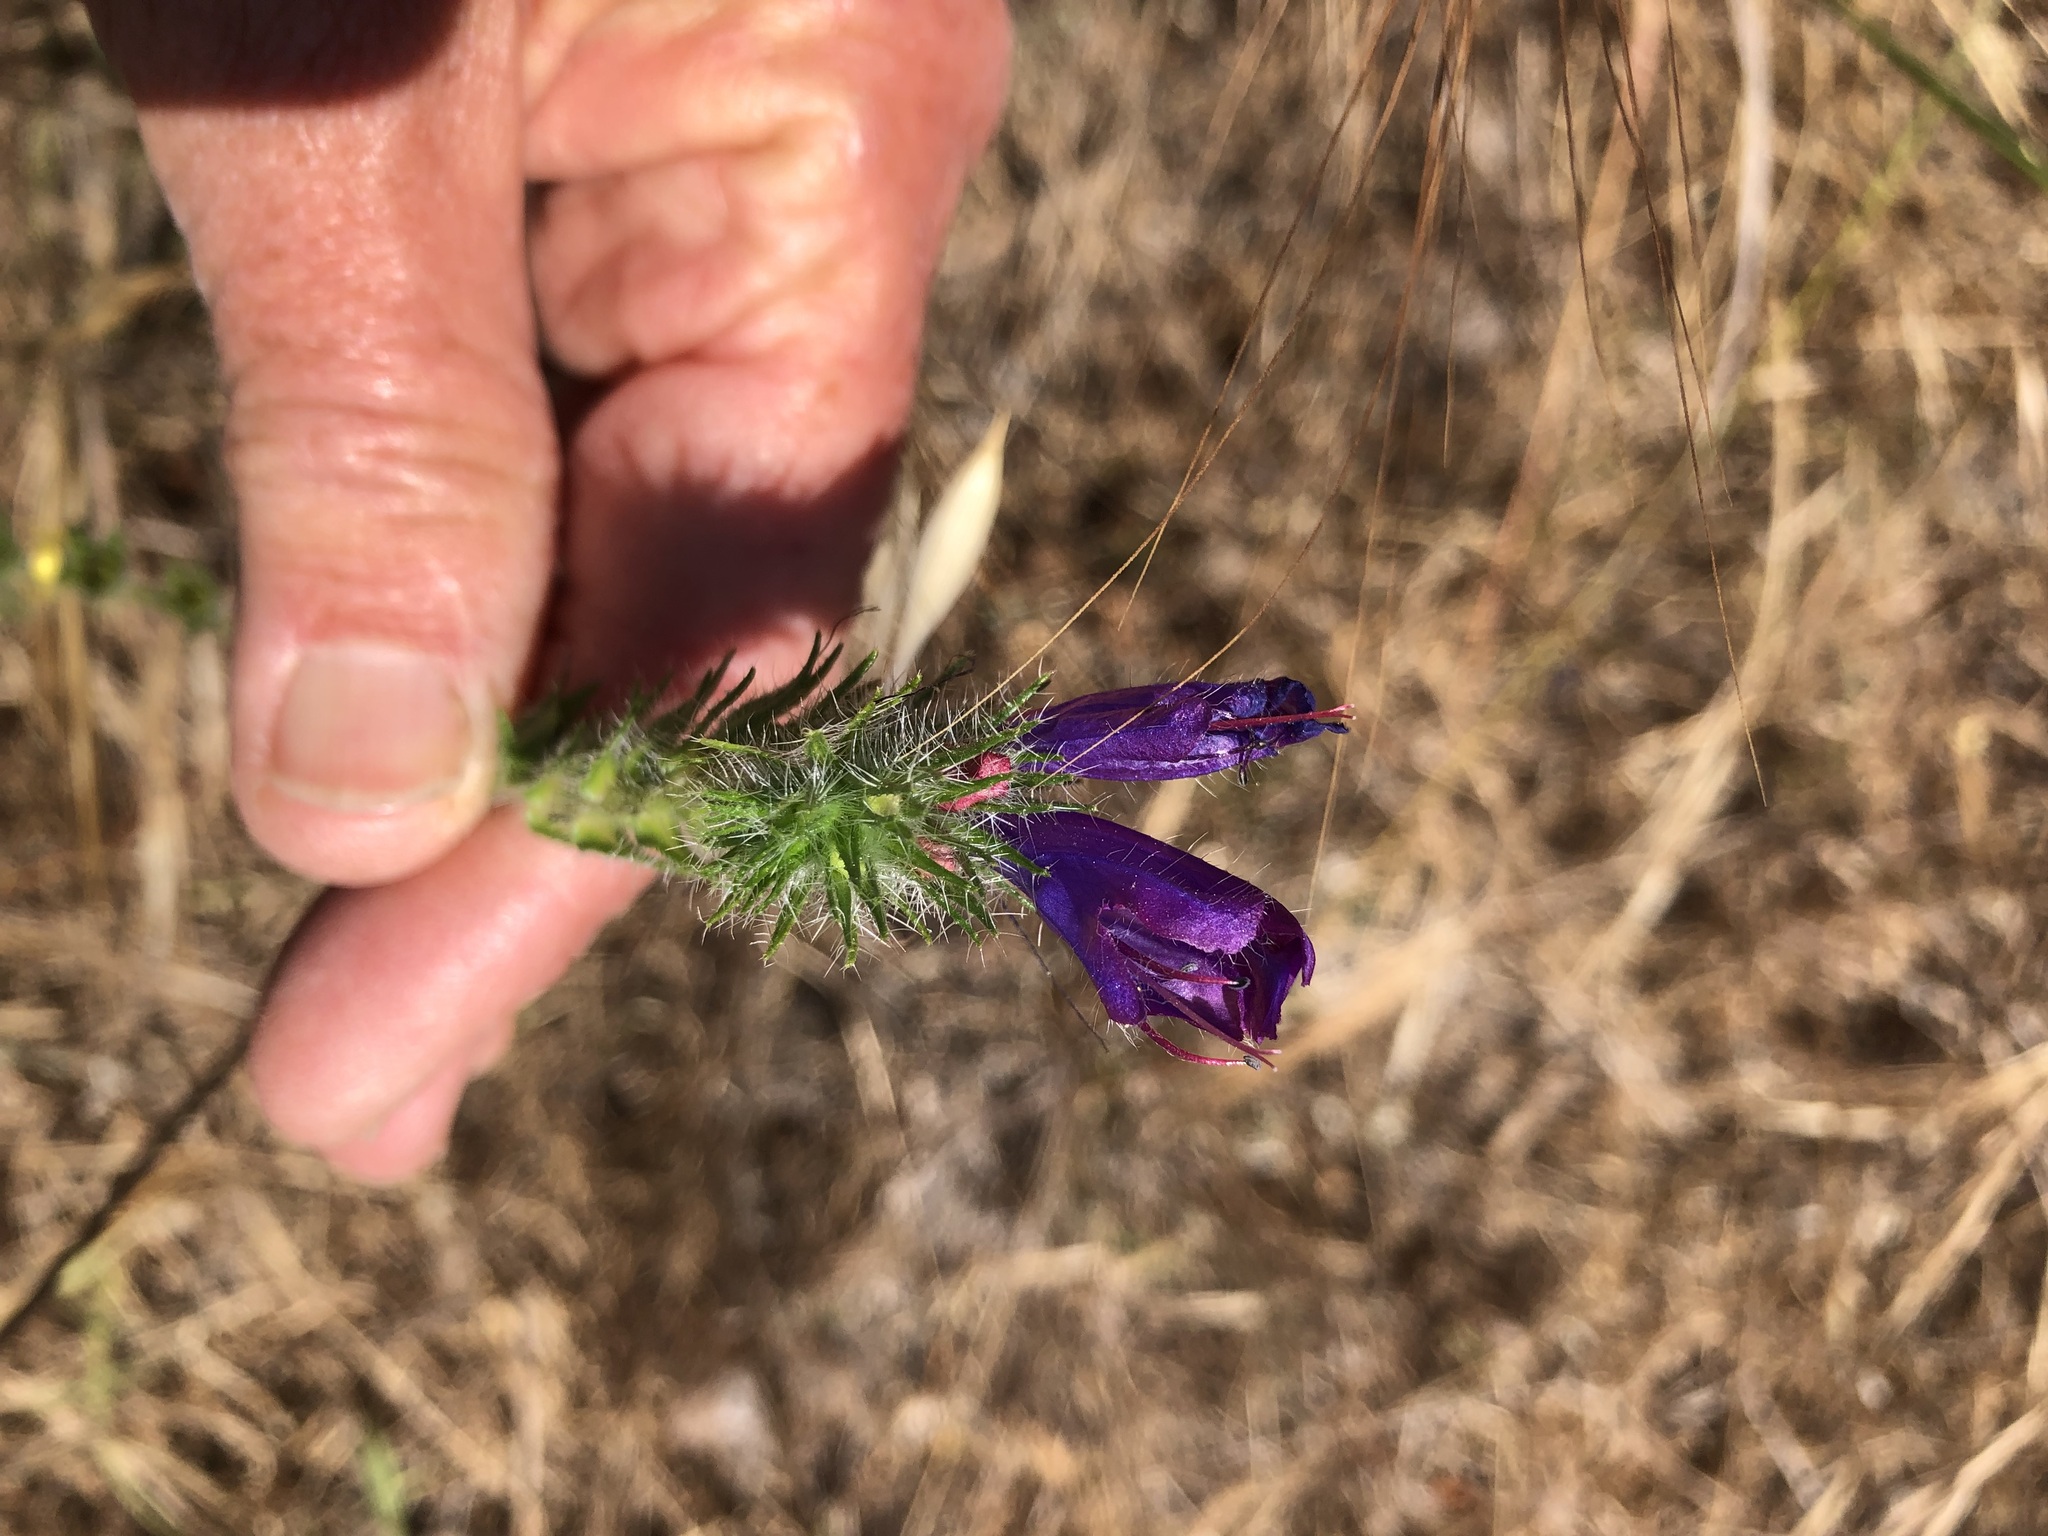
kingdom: Plantae
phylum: Tracheophyta
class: Magnoliopsida
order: Boraginales
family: Boraginaceae
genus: Echium
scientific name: Echium plantagineum
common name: Purple viper's-bugloss
